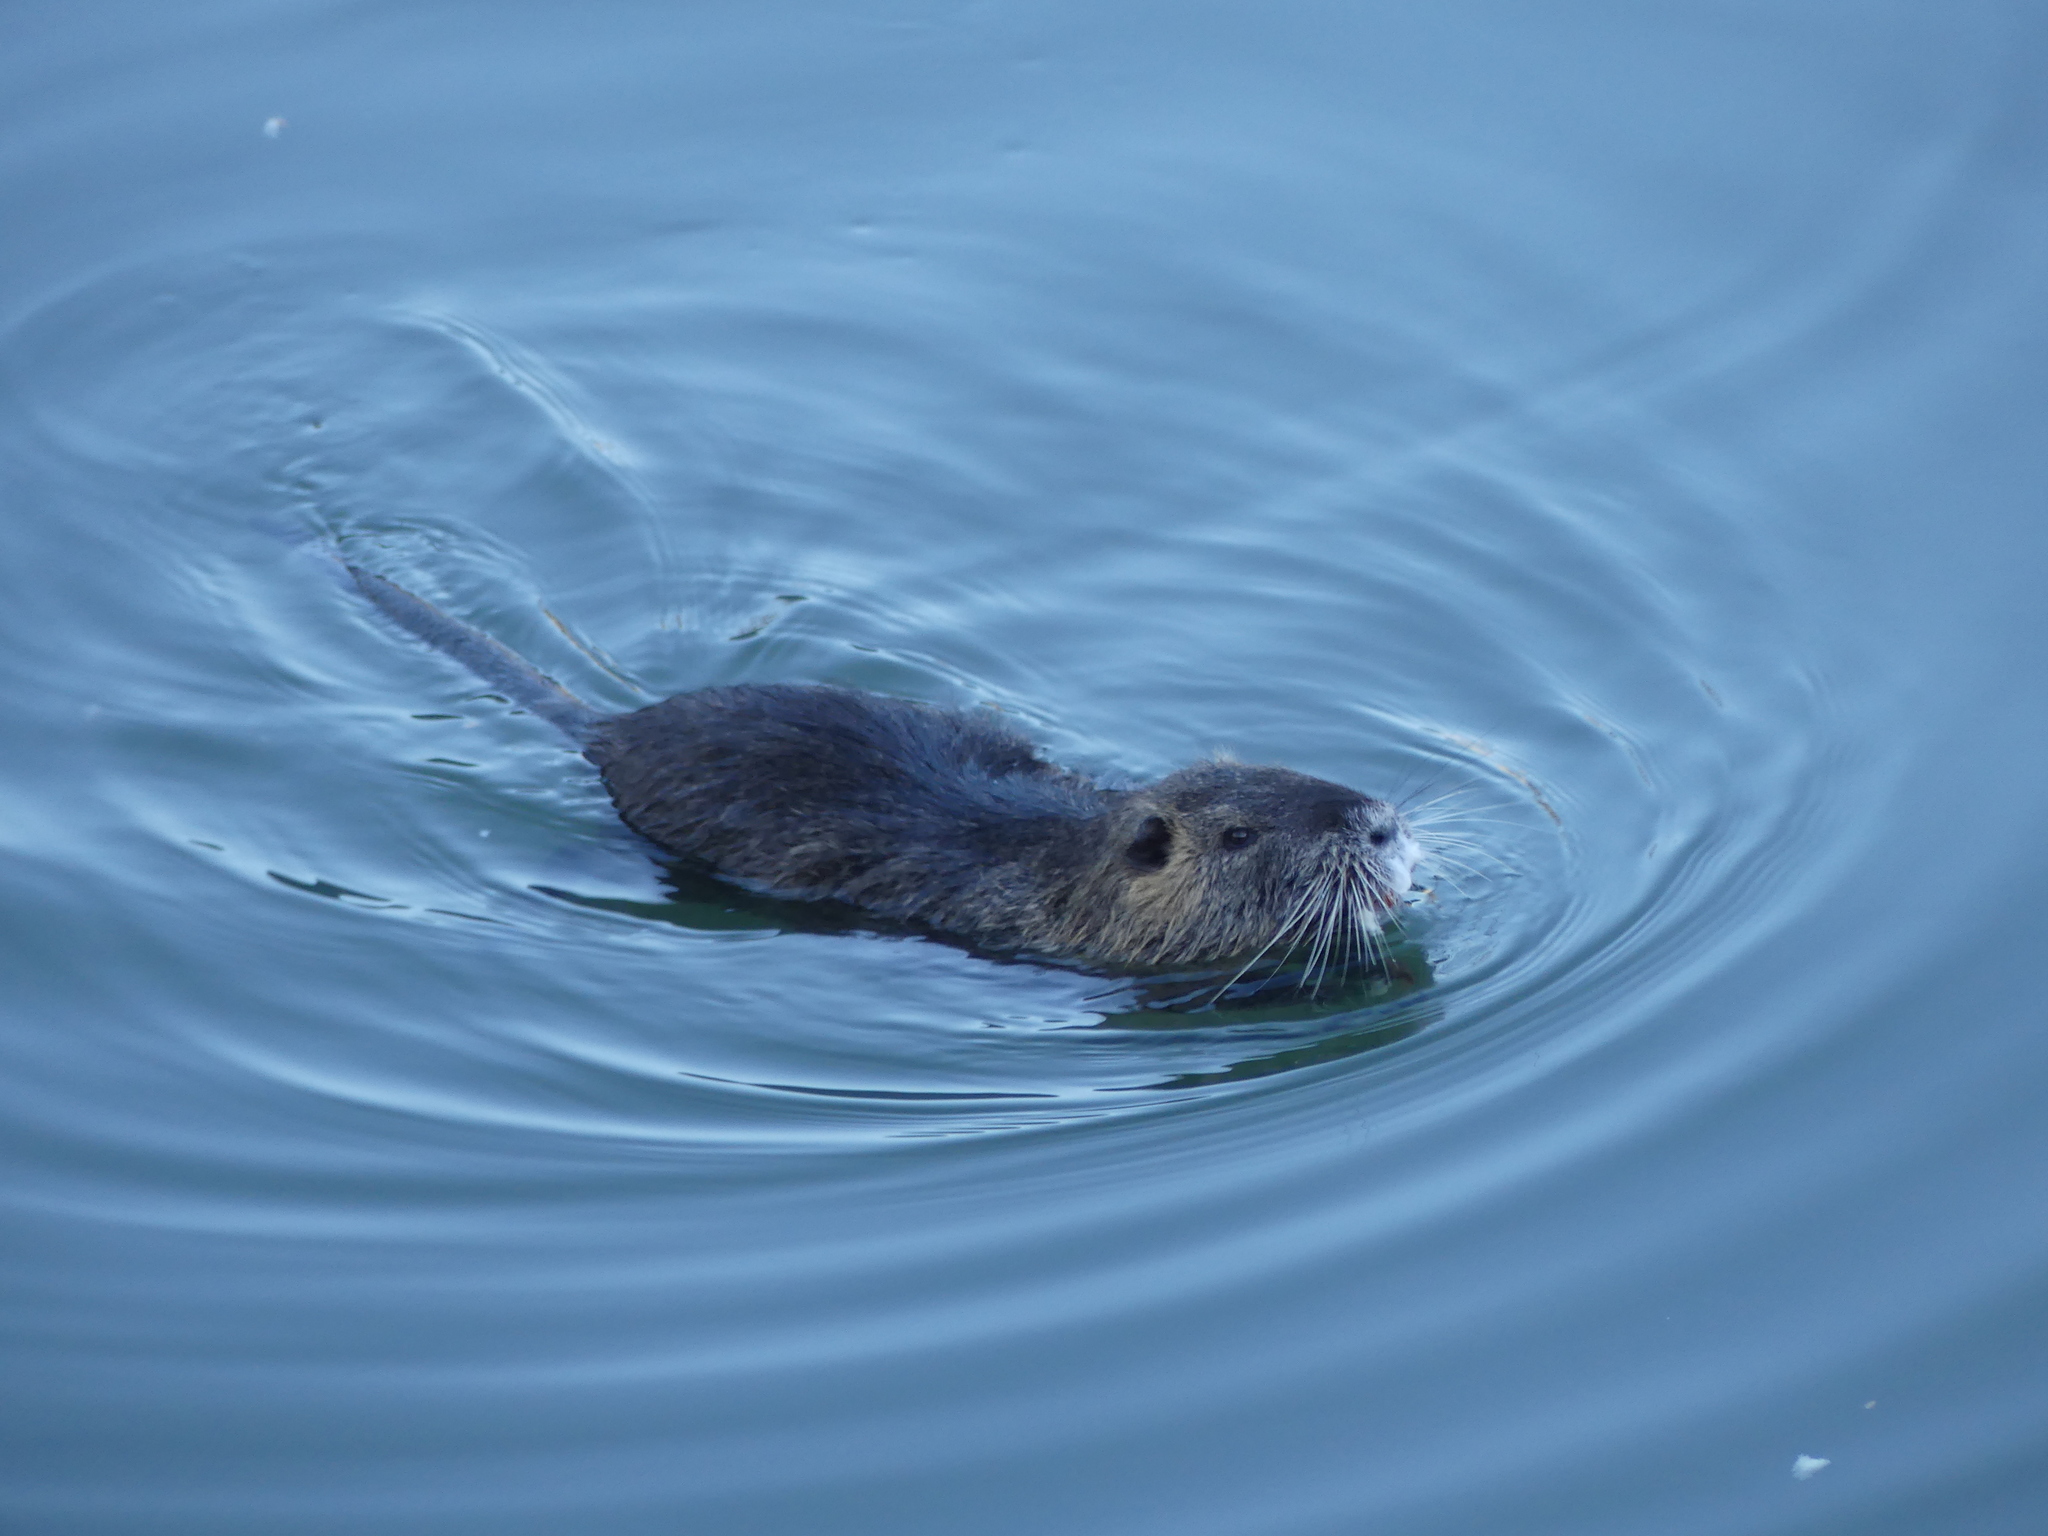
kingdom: Animalia
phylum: Chordata
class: Mammalia
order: Rodentia
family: Myocastoridae
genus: Myocastor
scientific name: Myocastor coypus
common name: Coypu
